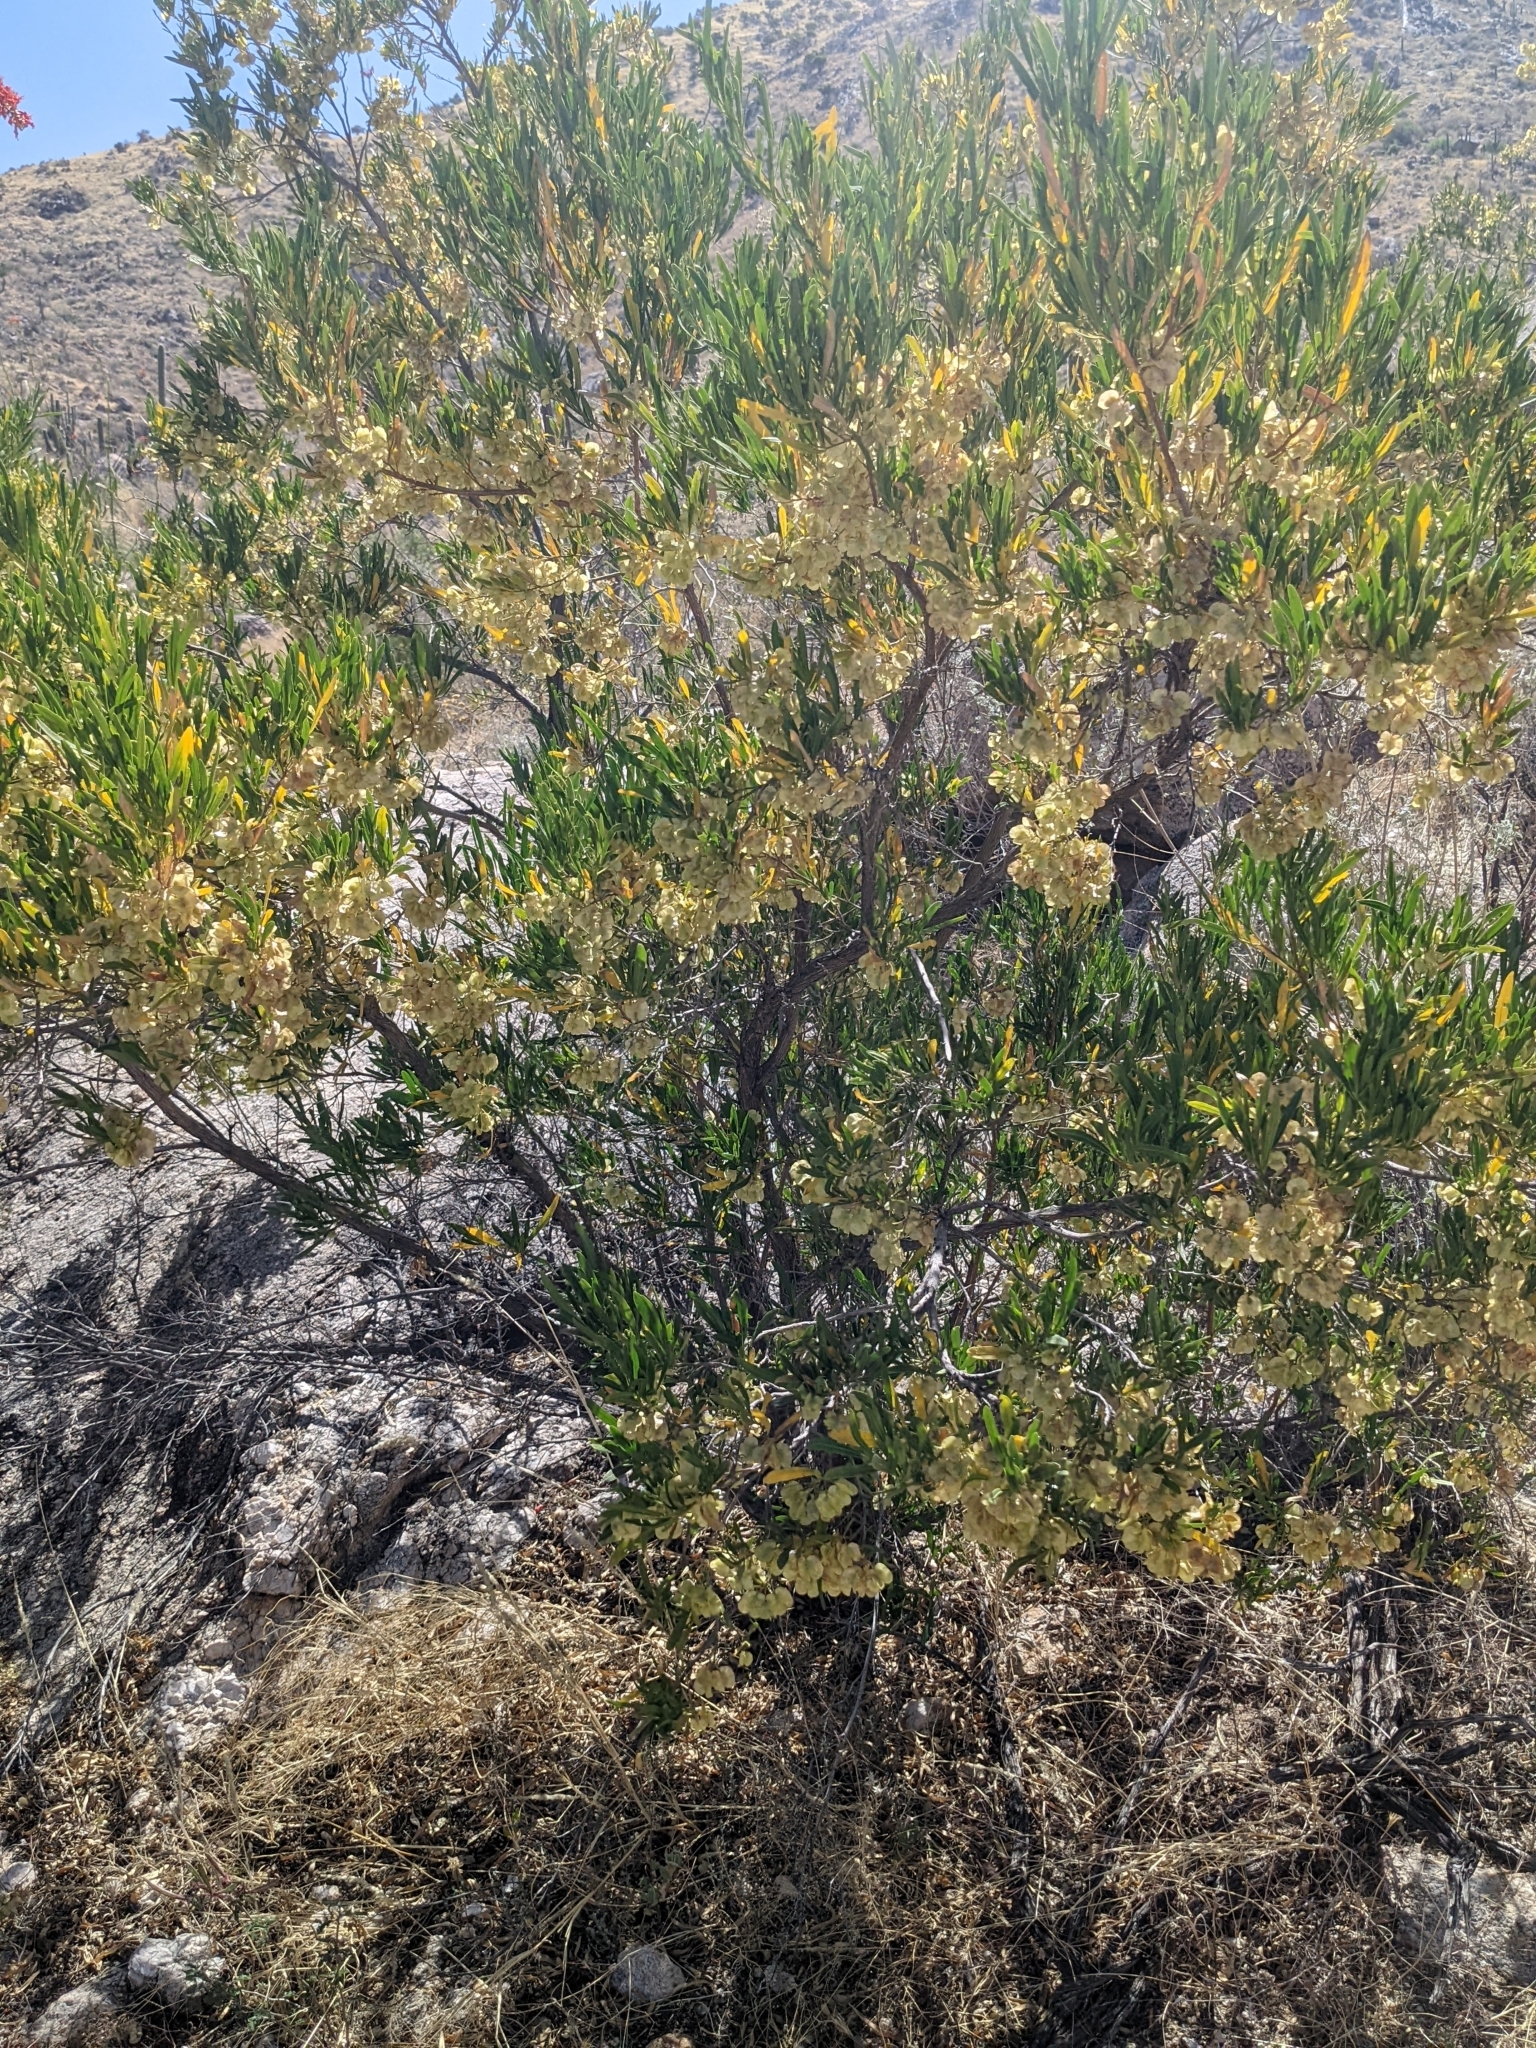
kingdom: Plantae
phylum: Tracheophyta
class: Magnoliopsida
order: Sapindales
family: Sapindaceae
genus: Dodonaea
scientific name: Dodonaea viscosa
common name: Hopbush
